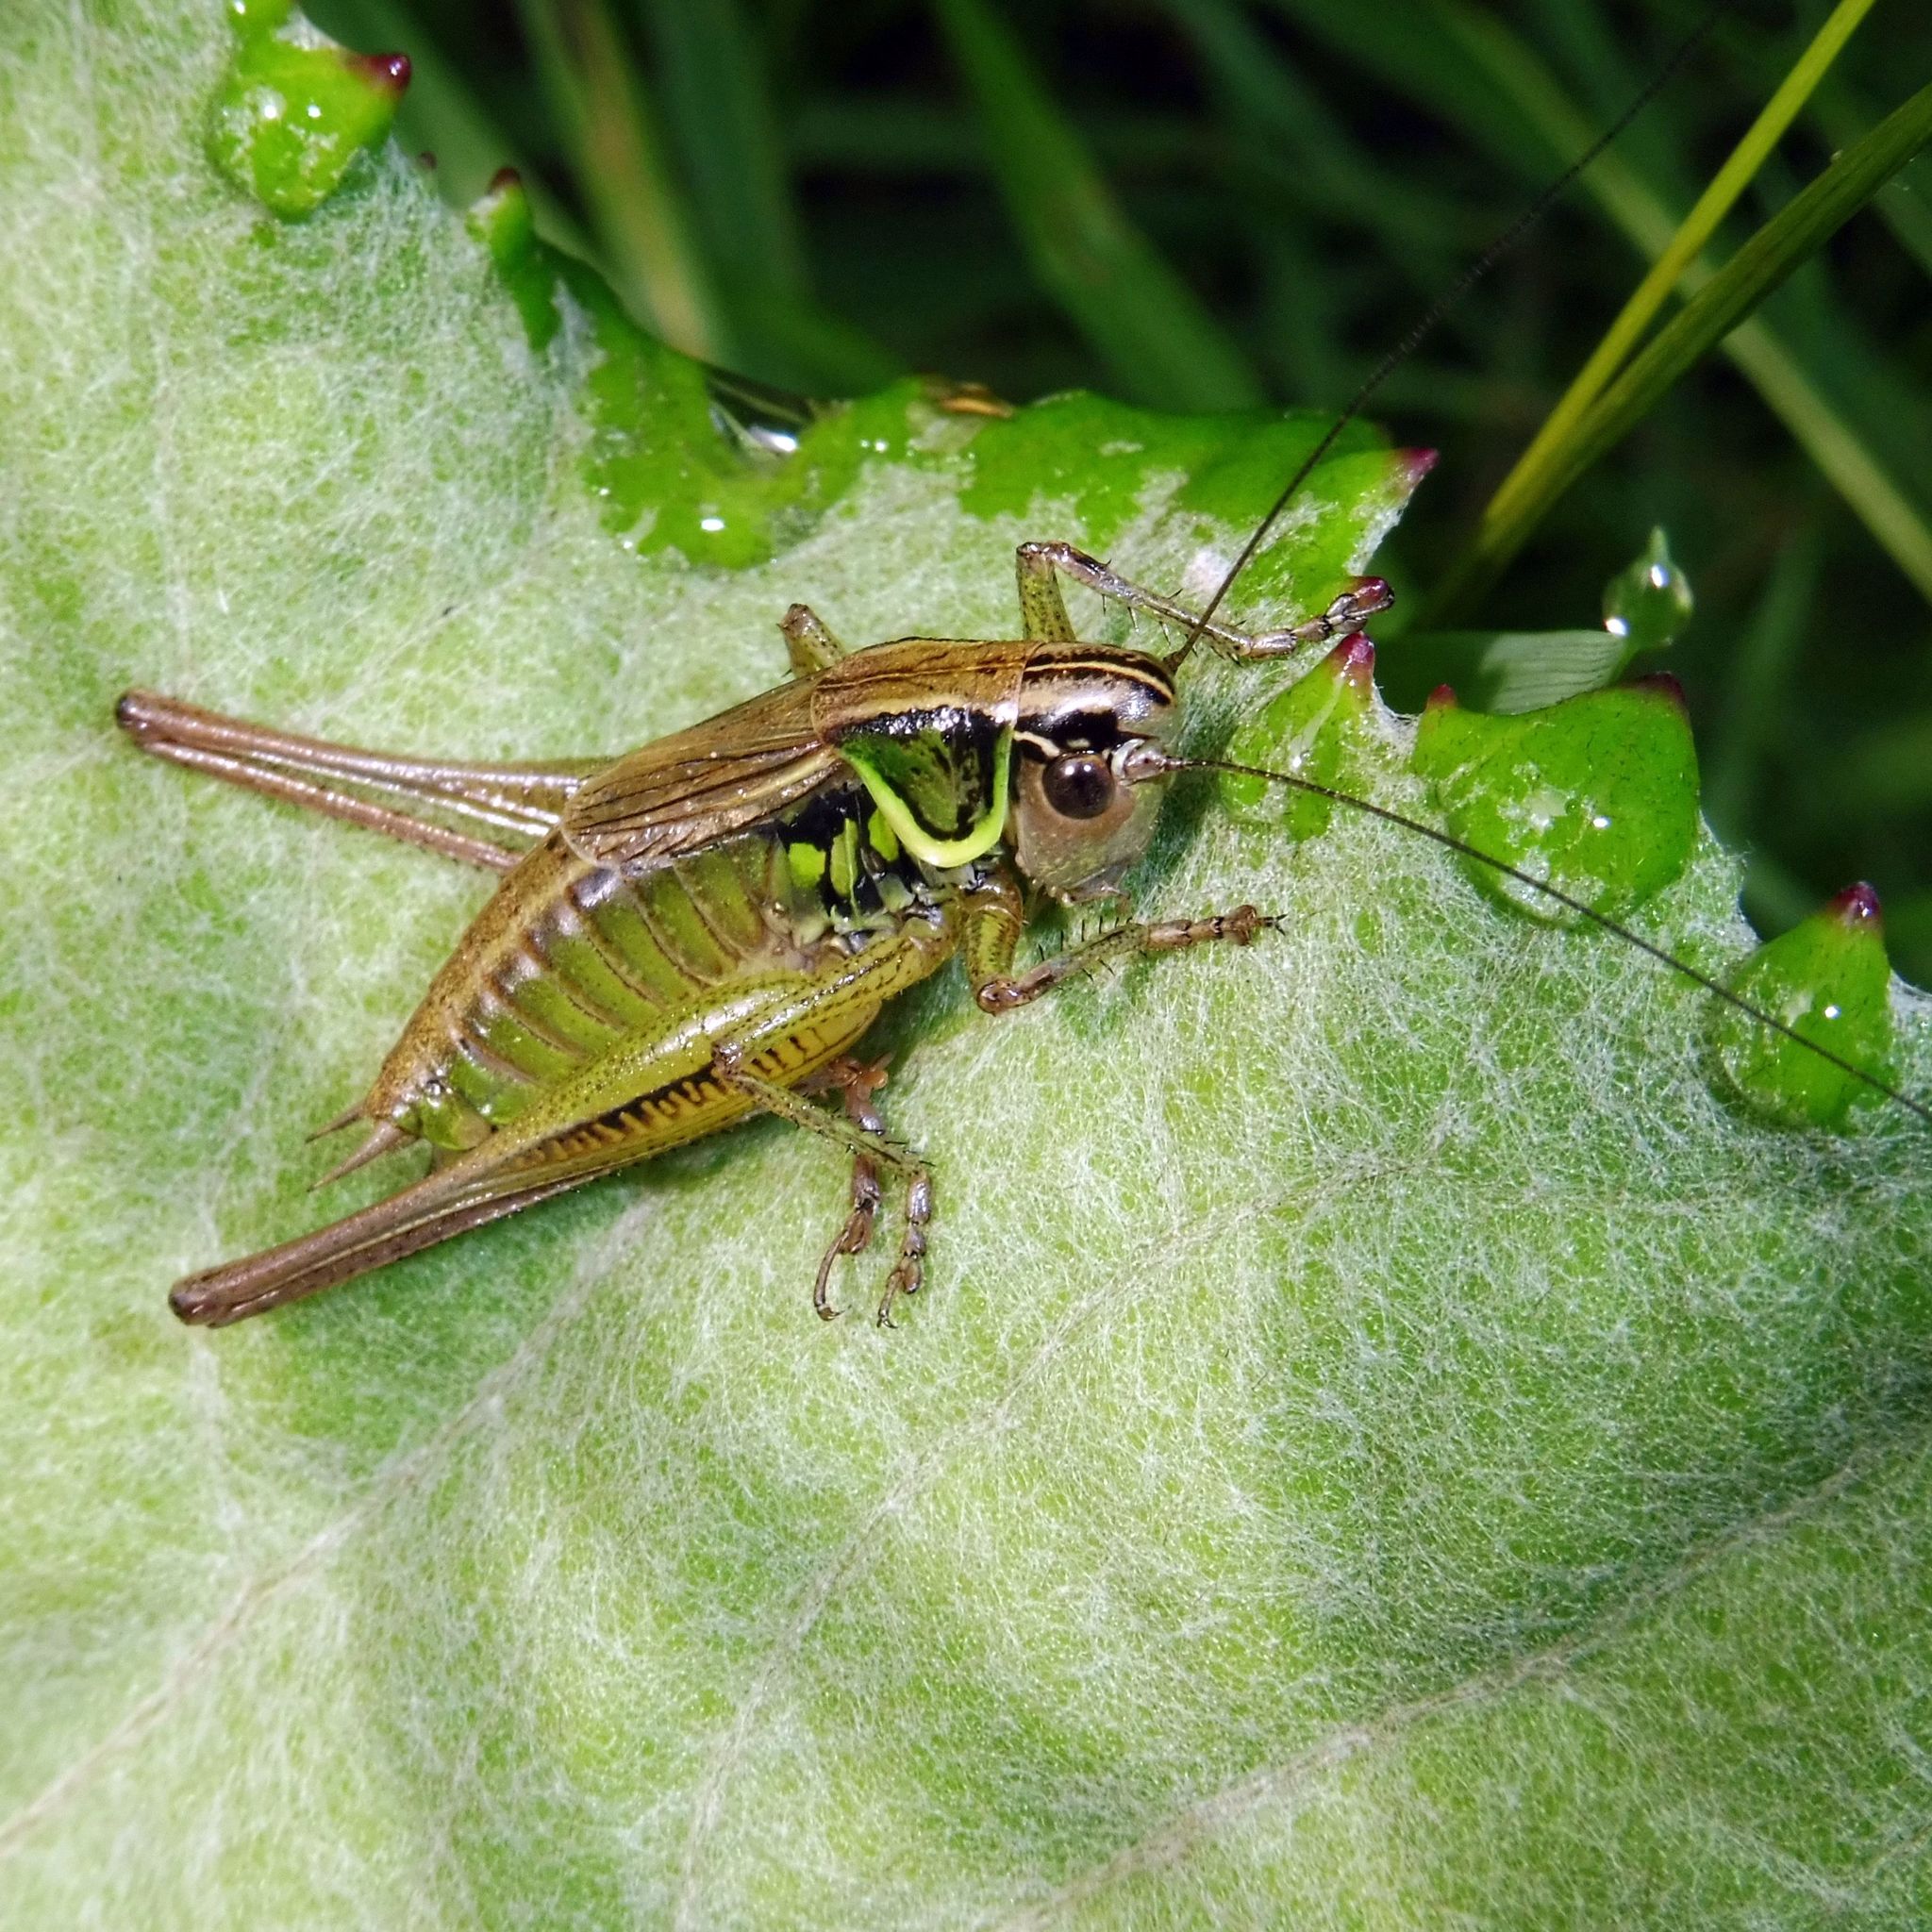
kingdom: Animalia
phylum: Arthropoda
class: Insecta
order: Orthoptera
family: Tettigoniidae
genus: Roeseliana
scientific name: Roeseliana roeselii
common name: Roesel's bush cricket
